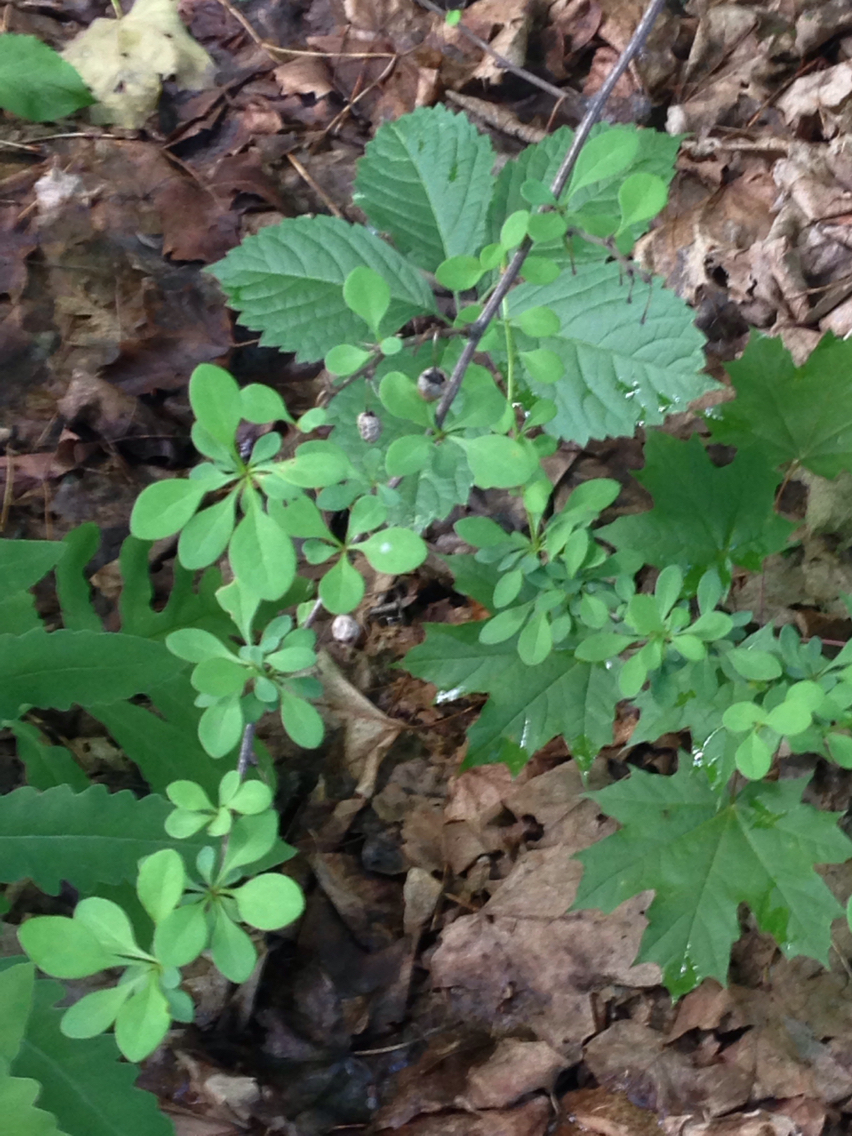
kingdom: Plantae
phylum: Tracheophyta
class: Magnoliopsida
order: Ranunculales
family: Berberidaceae
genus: Berberis
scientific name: Berberis thunbergii
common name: Japanese barberry
